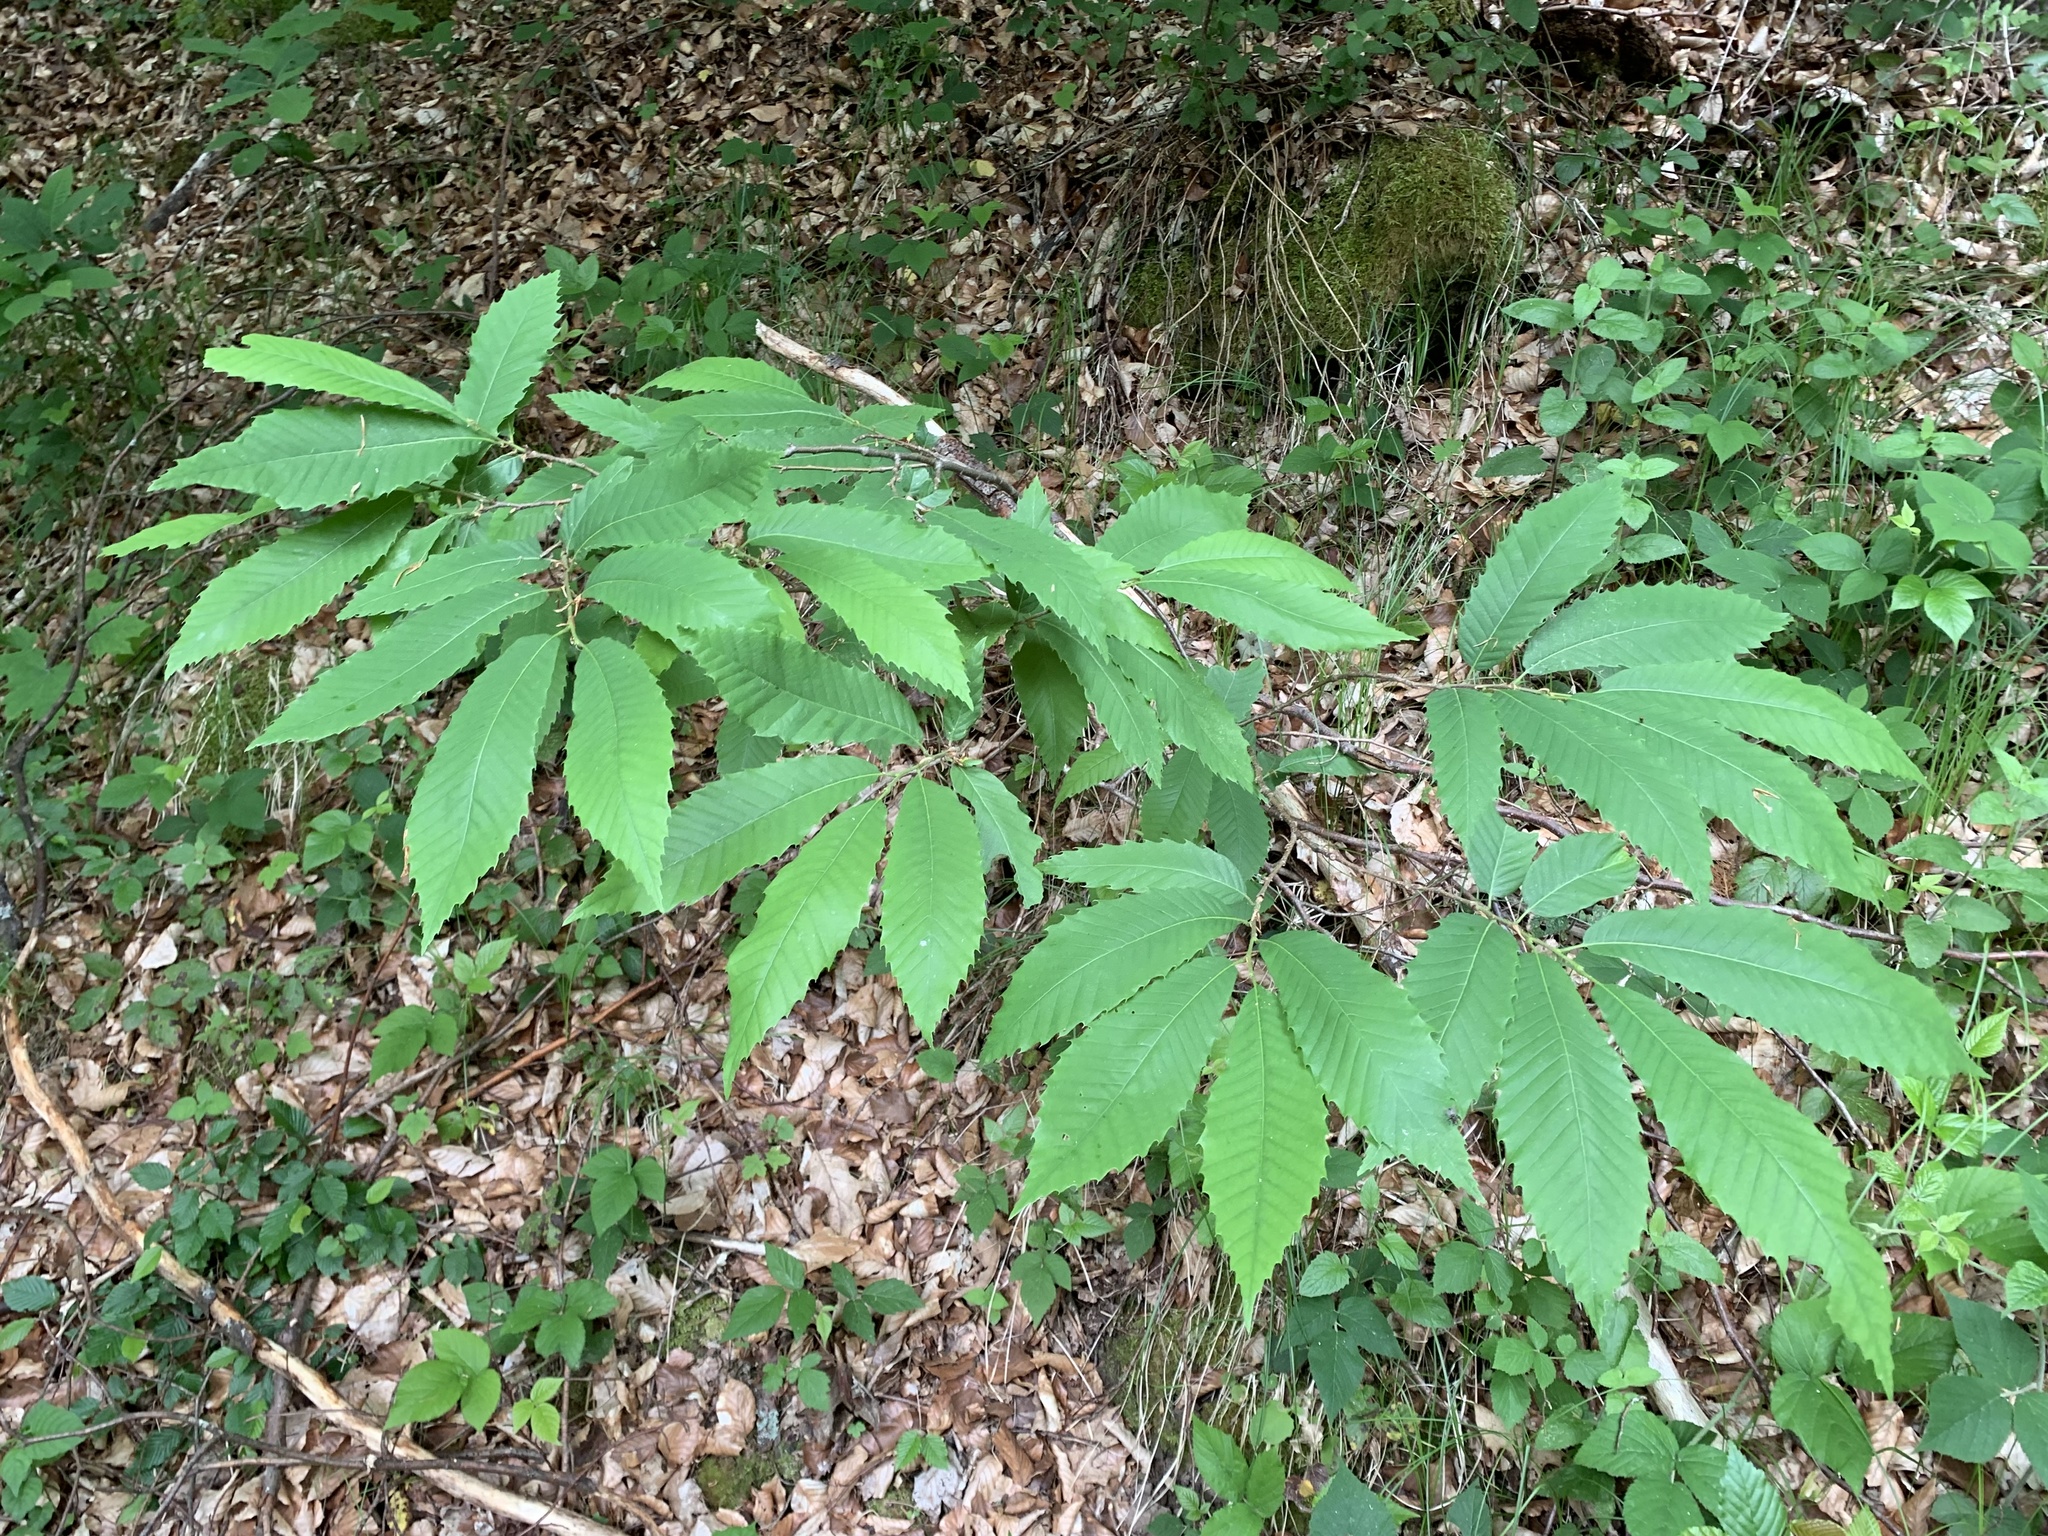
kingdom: Plantae
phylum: Tracheophyta
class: Magnoliopsida
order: Fagales
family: Fagaceae
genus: Castanea
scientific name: Castanea sativa
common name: Sweet chestnut
